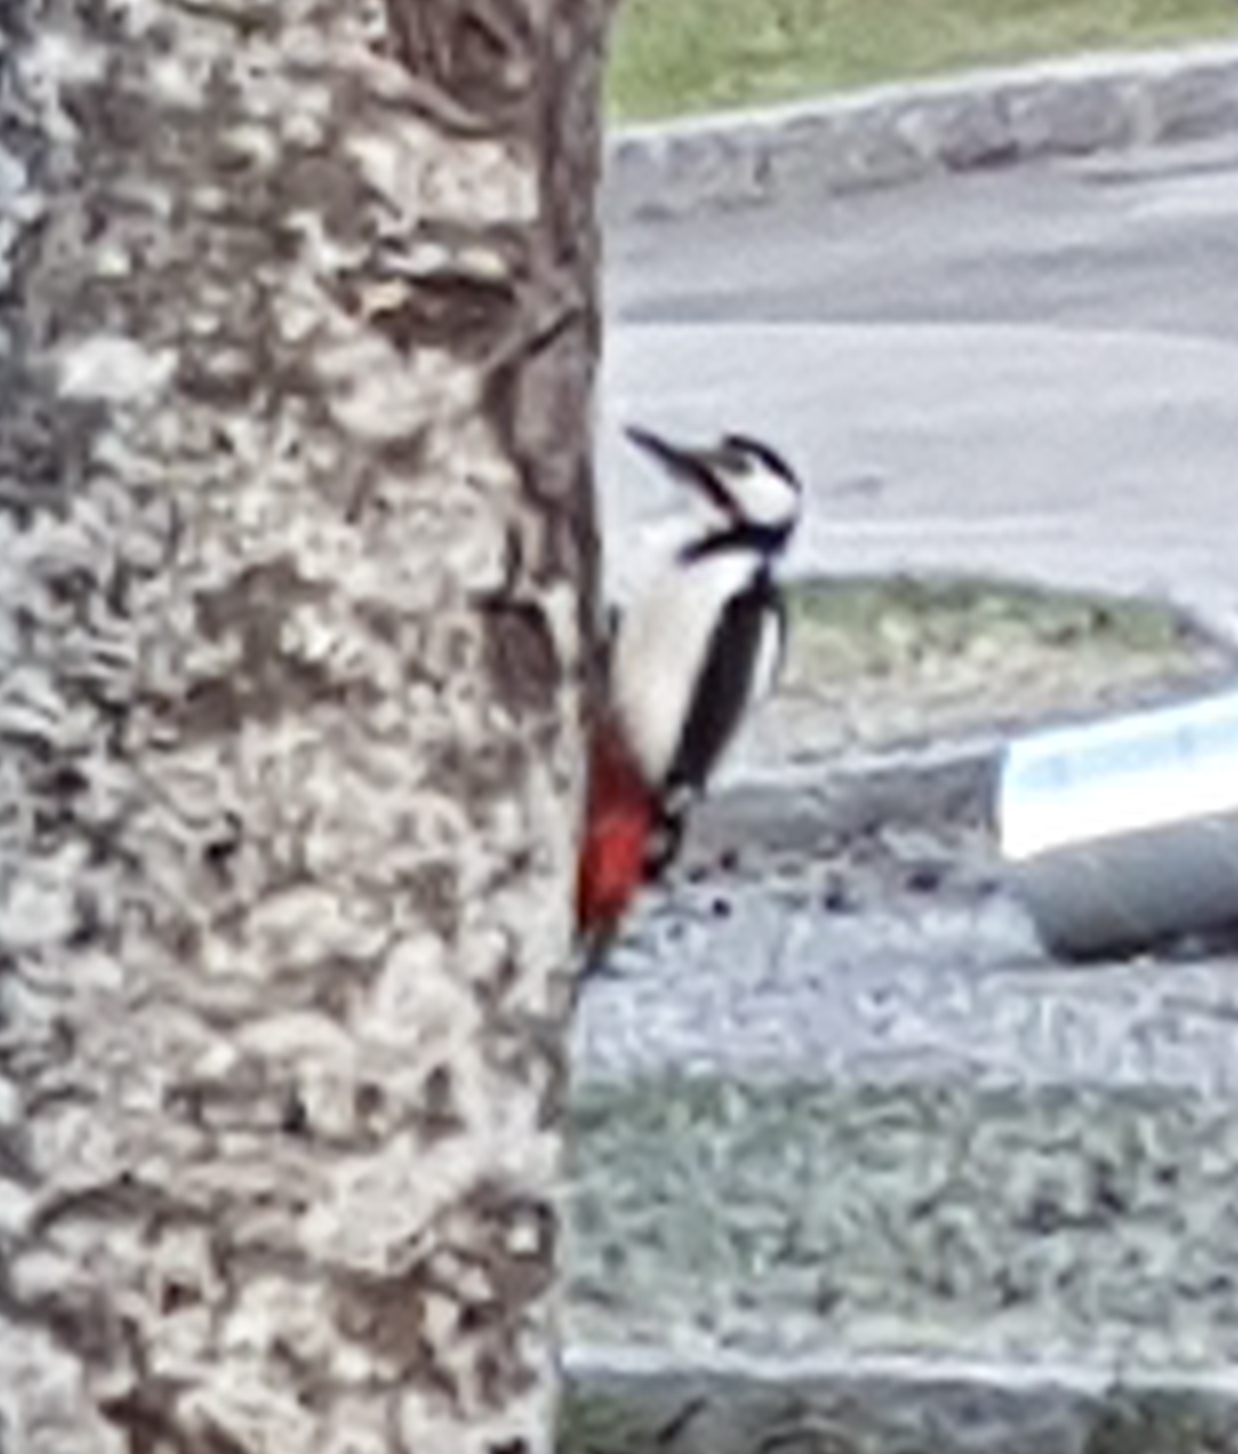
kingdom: Animalia
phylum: Chordata
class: Aves
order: Piciformes
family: Picidae
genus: Dendrocopos
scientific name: Dendrocopos major
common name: Great spotted woodpecker
